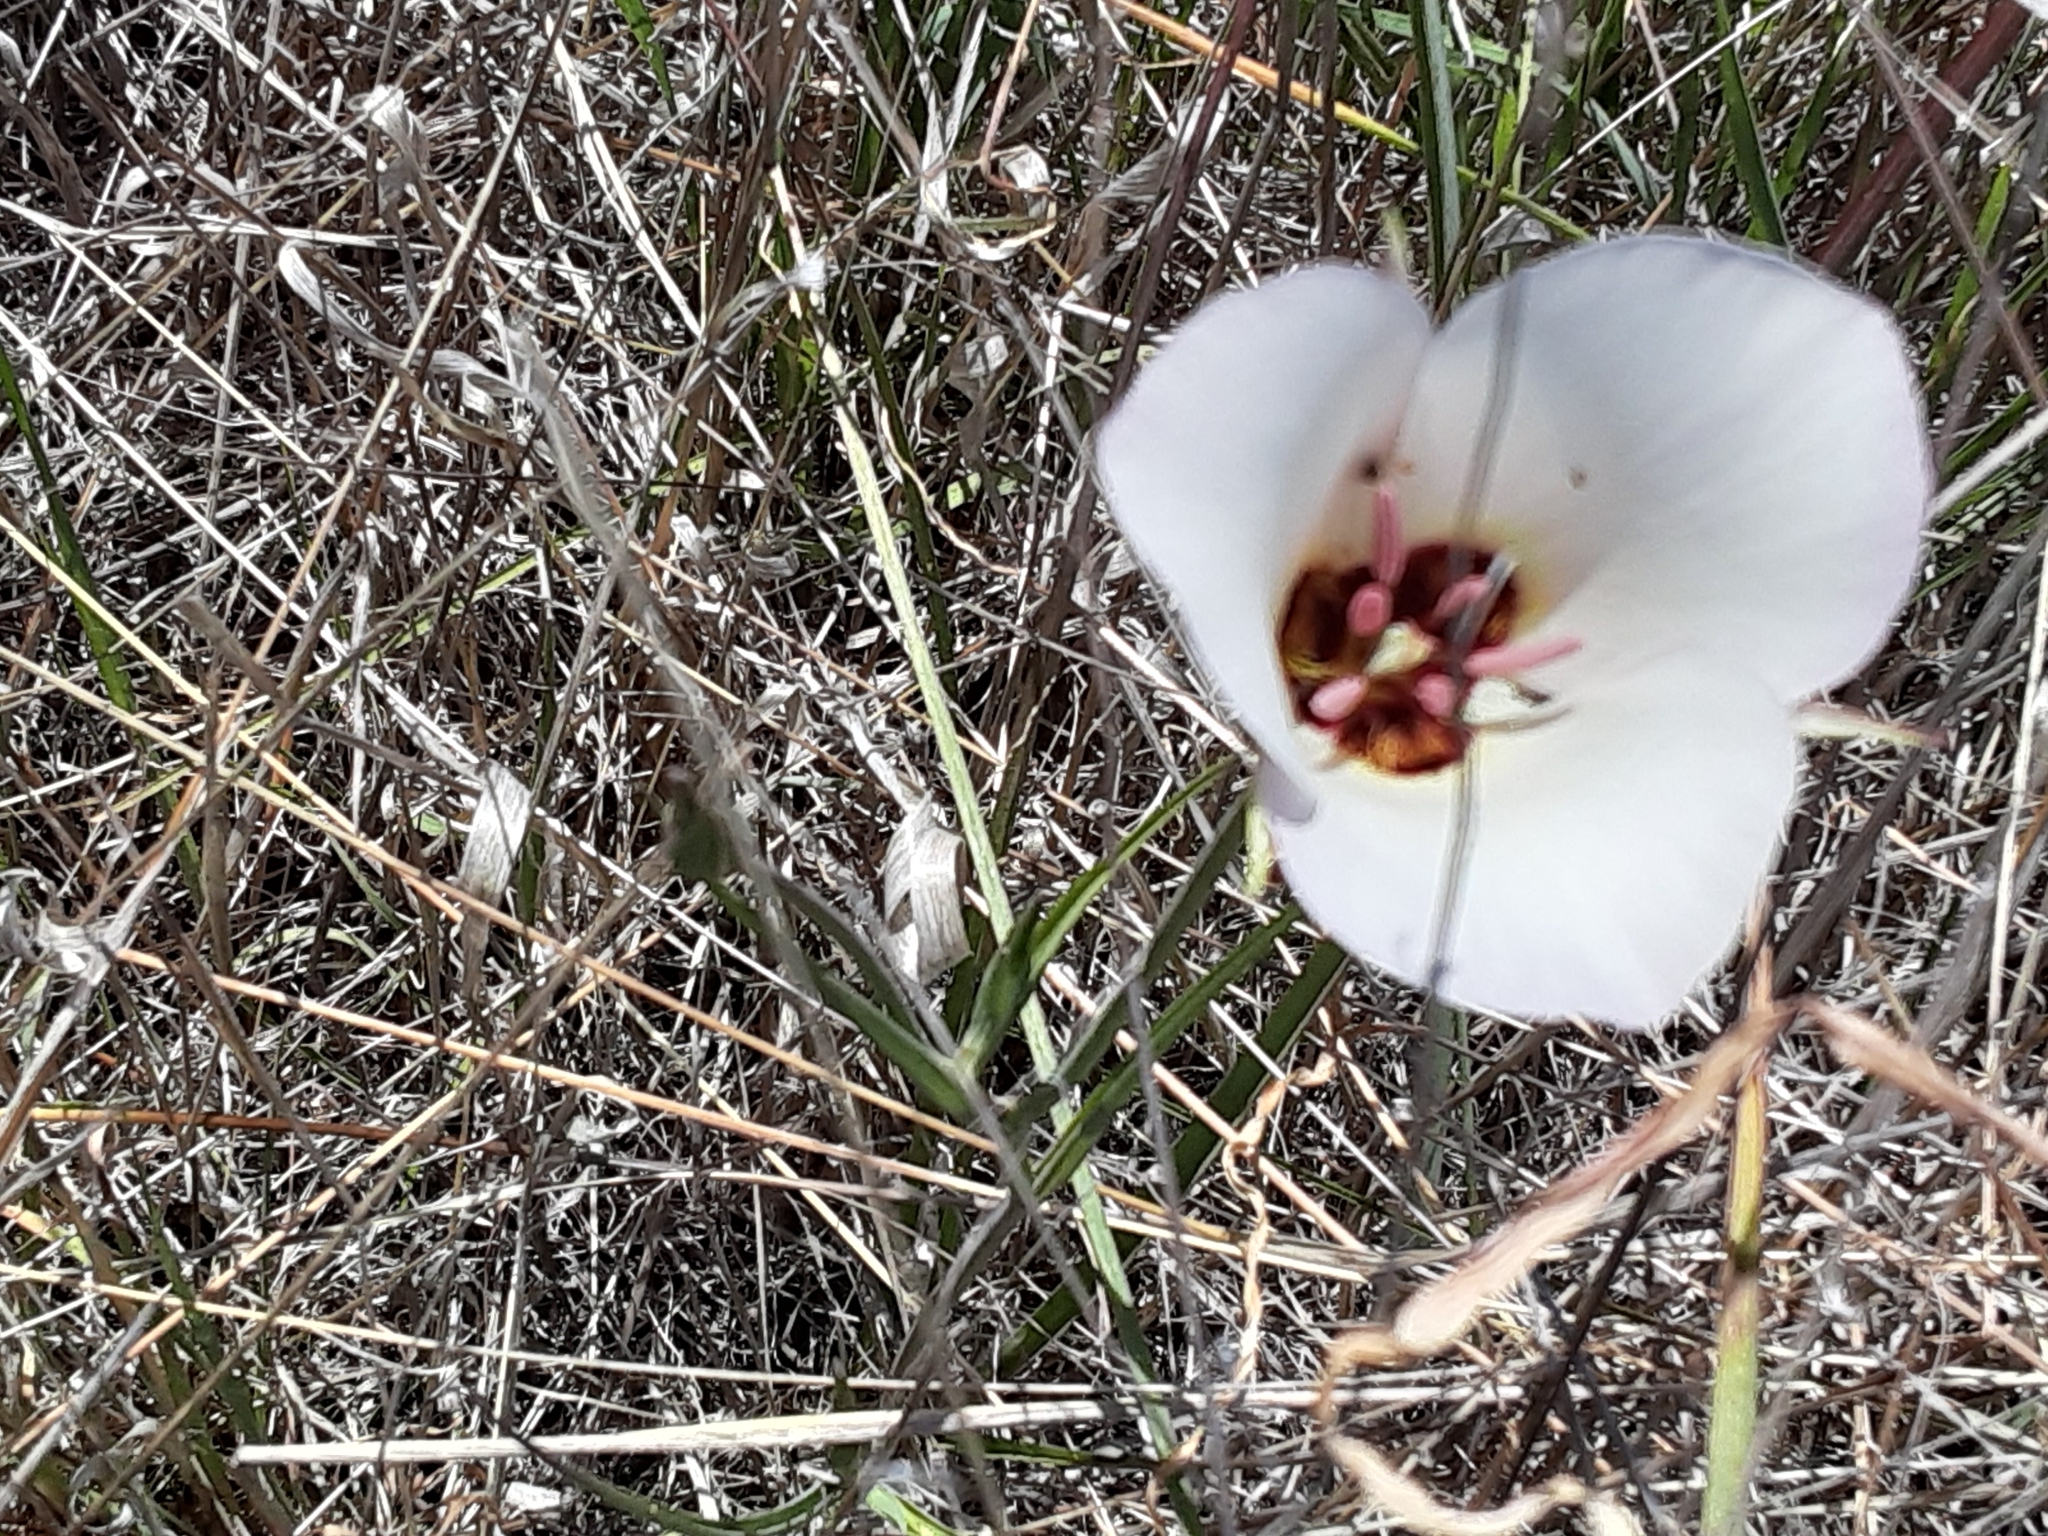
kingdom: Plantae
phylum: Tracheophyta
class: Liliopsida
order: Liliales
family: Liliaceae
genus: Calochortus
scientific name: Calochortus catalinae
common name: Catalina mariposa-lily
